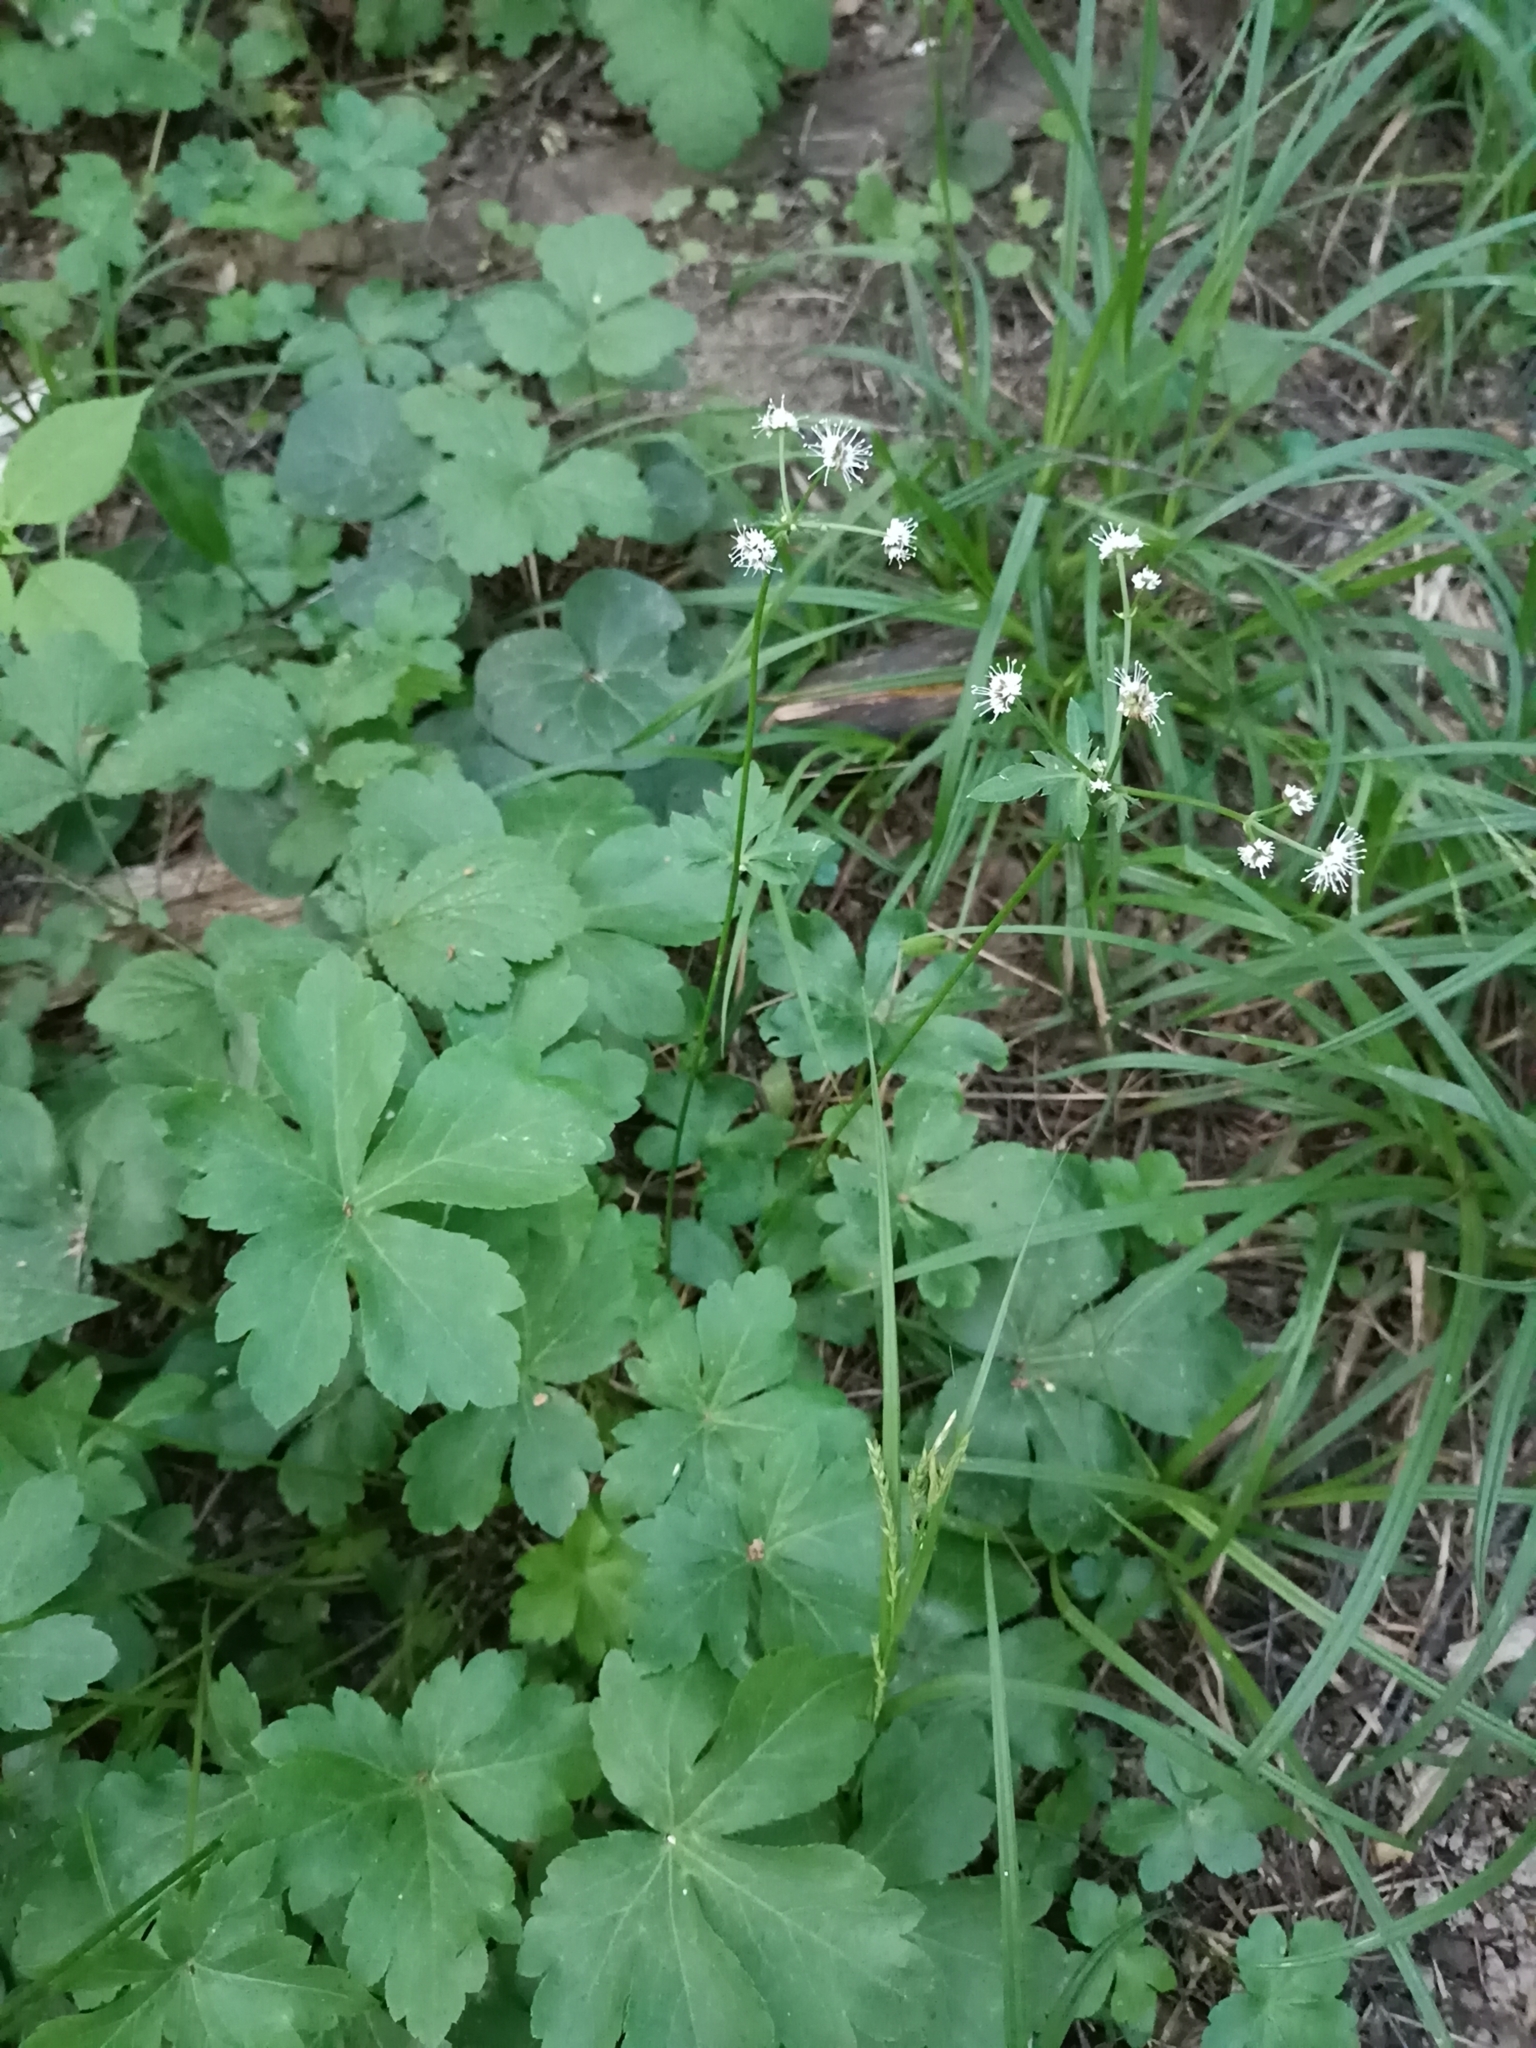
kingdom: Plantae
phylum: Tracheophyta
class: Magnoliopsida
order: Apiales
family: Apiaceae
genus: Sanicula
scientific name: Sanicula europaea
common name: Sanicle
